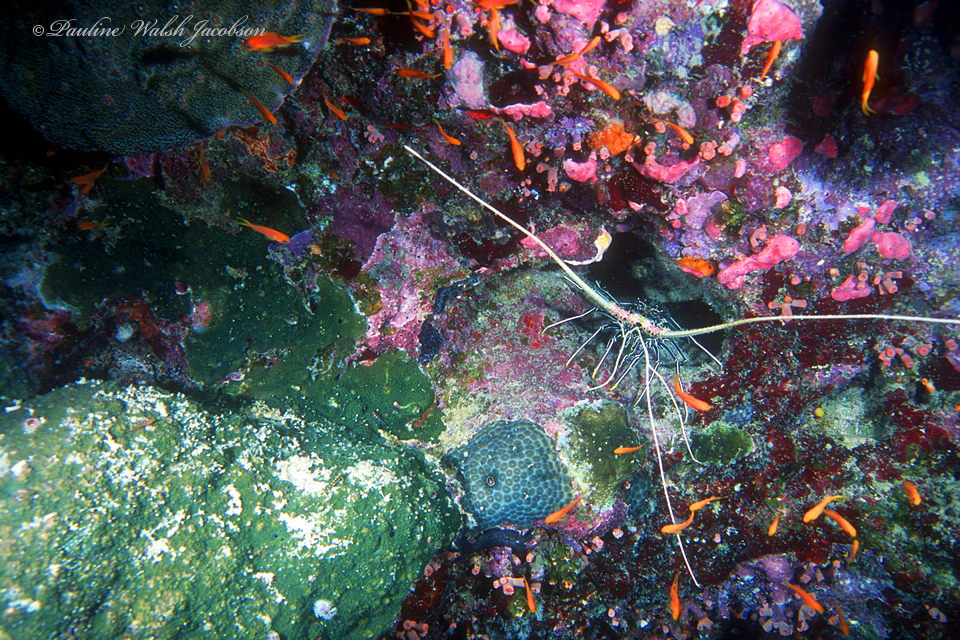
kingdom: Animalia
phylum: Arthropoda
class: Malacostraca
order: Decapoda
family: Palinuridae
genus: Panulirus
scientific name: Panulirus versicolor
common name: Painted spiny lobster
